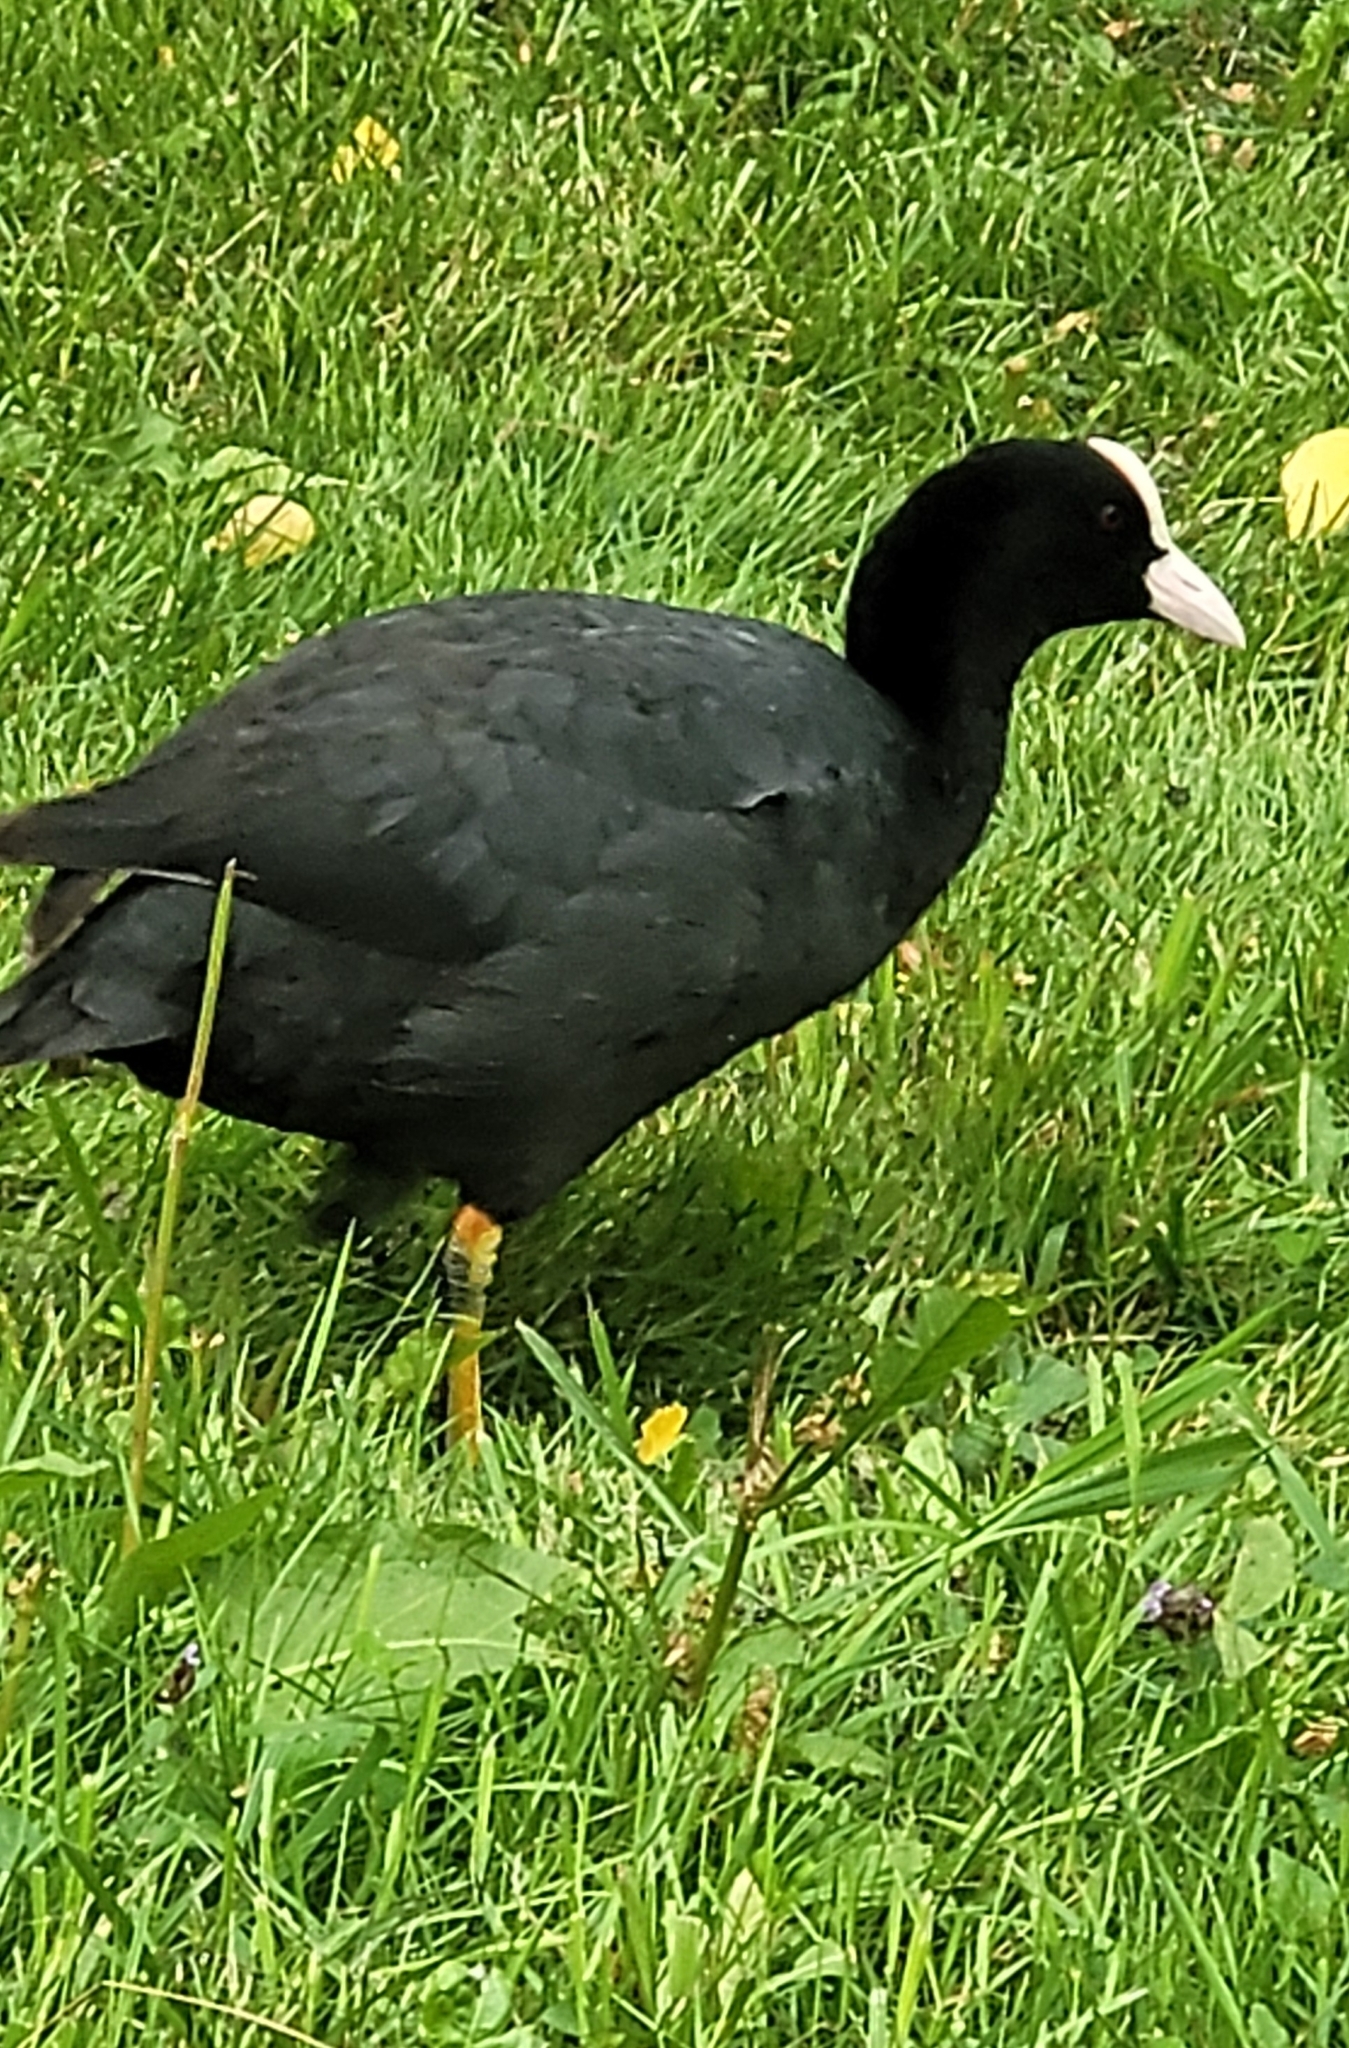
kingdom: Animalia
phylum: Chordata
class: Aves
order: Gruiformes
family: Rallidae
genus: Fulica
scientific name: Fulica atra
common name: Eurasian coot
